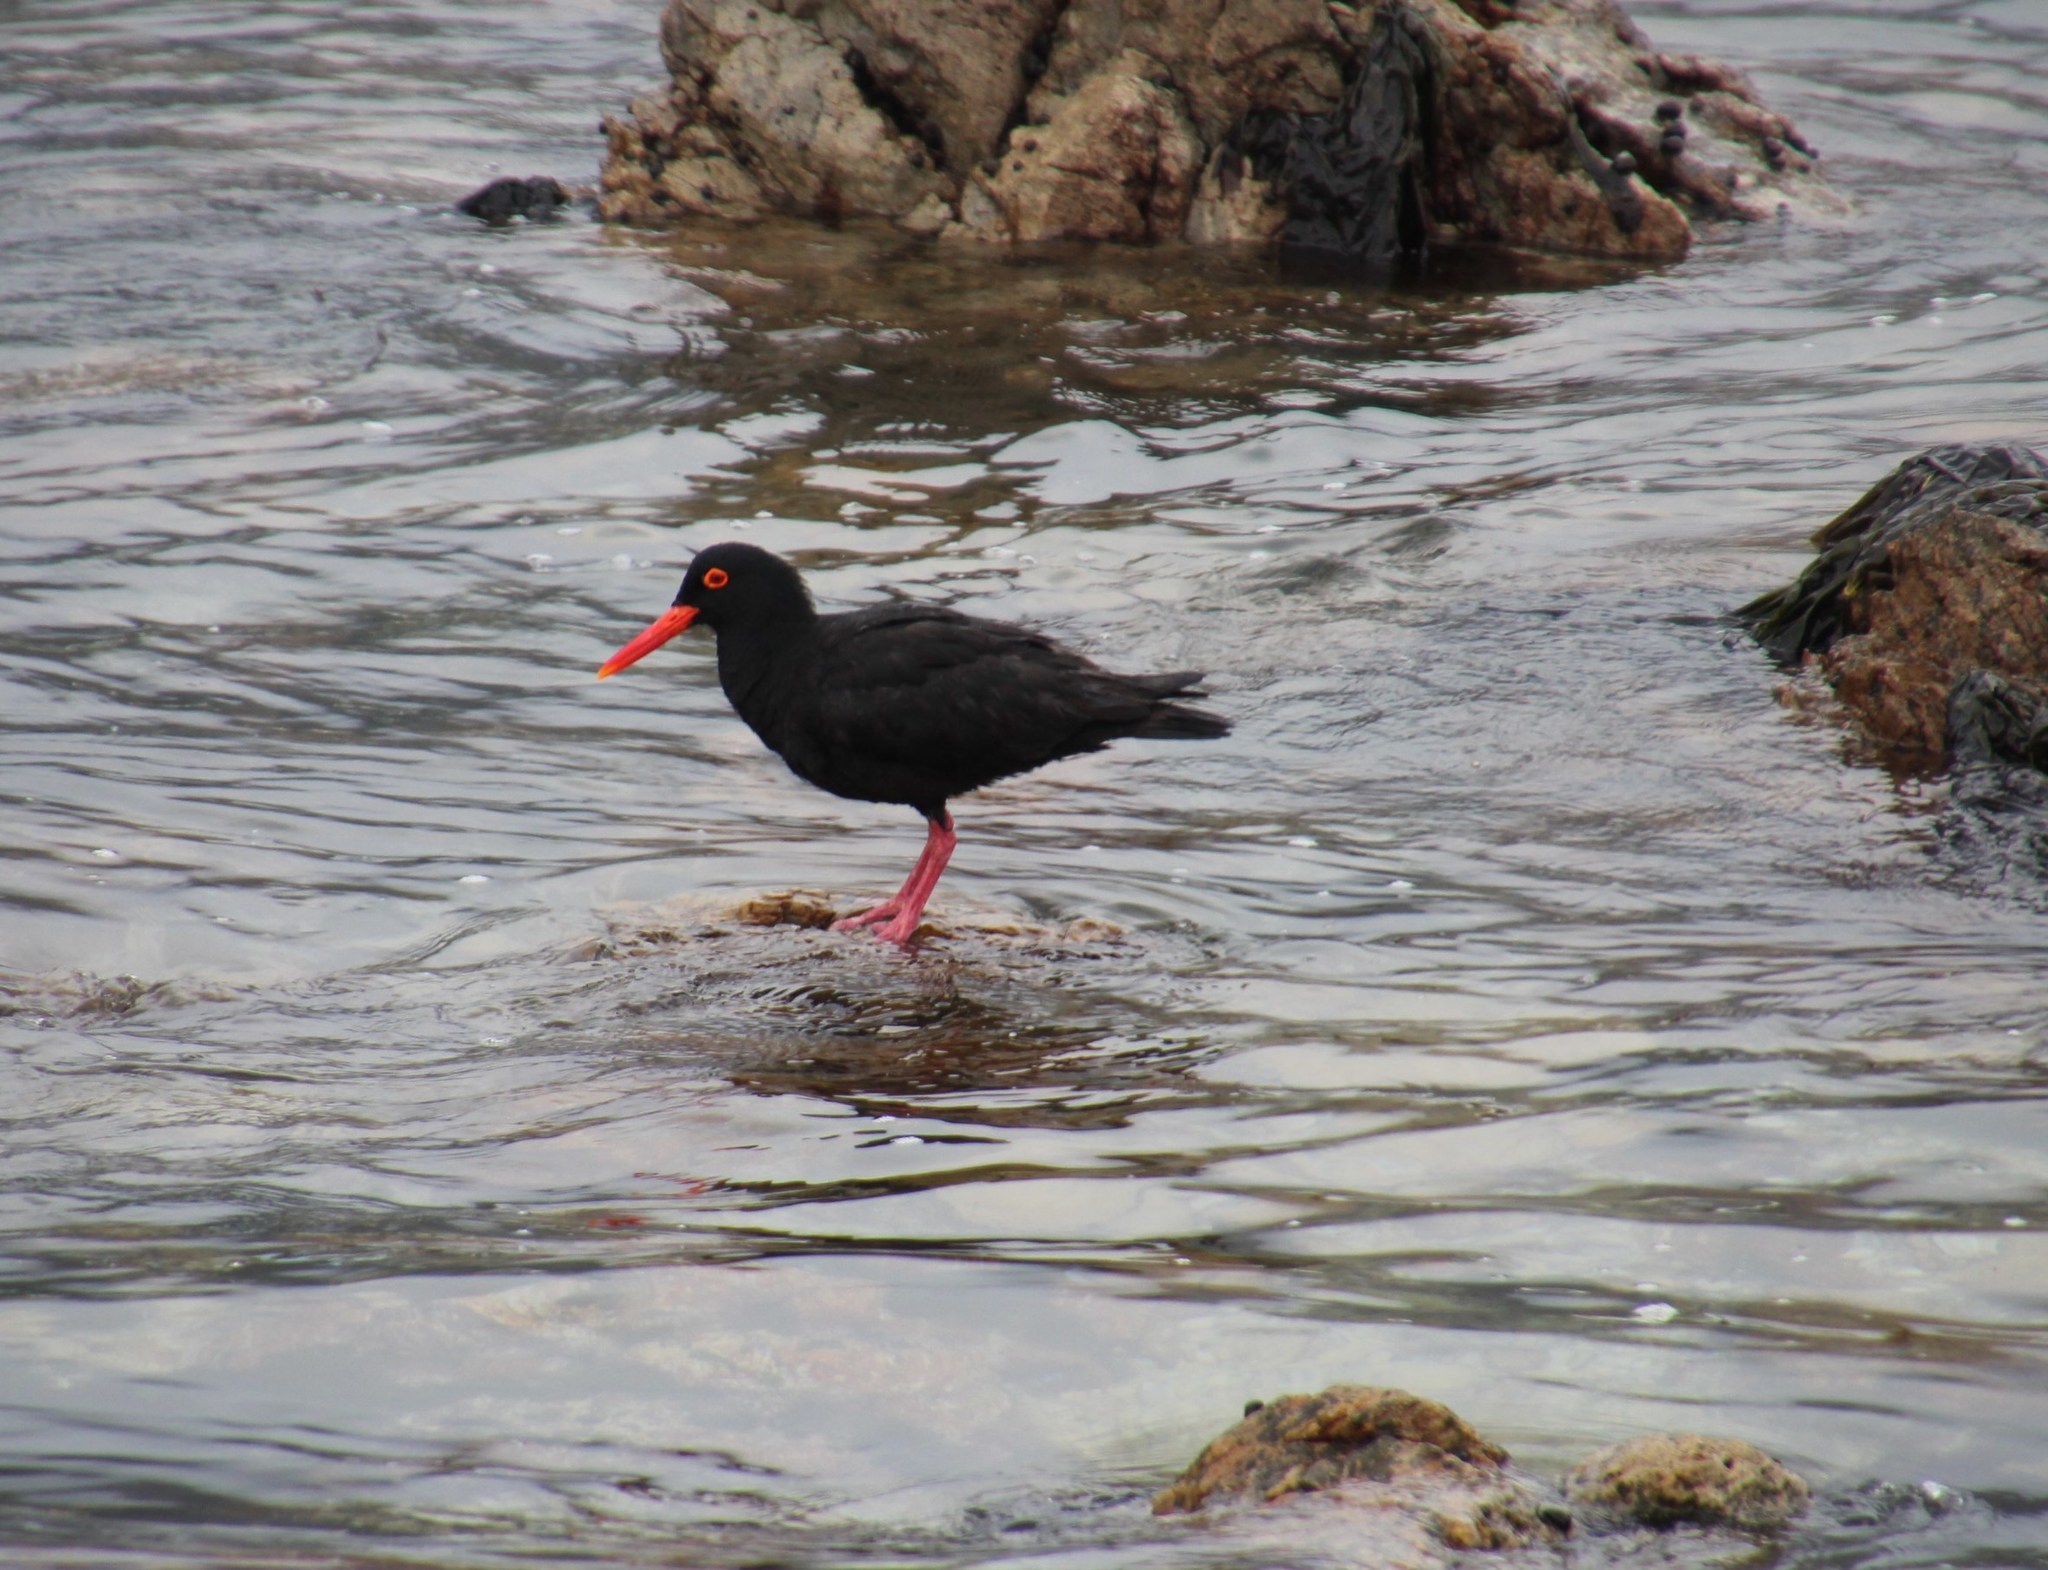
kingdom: Animalia
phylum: Chordata
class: Aves
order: Charadriiformes
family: Haematopodidae
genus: Haematopus
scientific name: Haematopus moquini
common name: African oystercatcher
